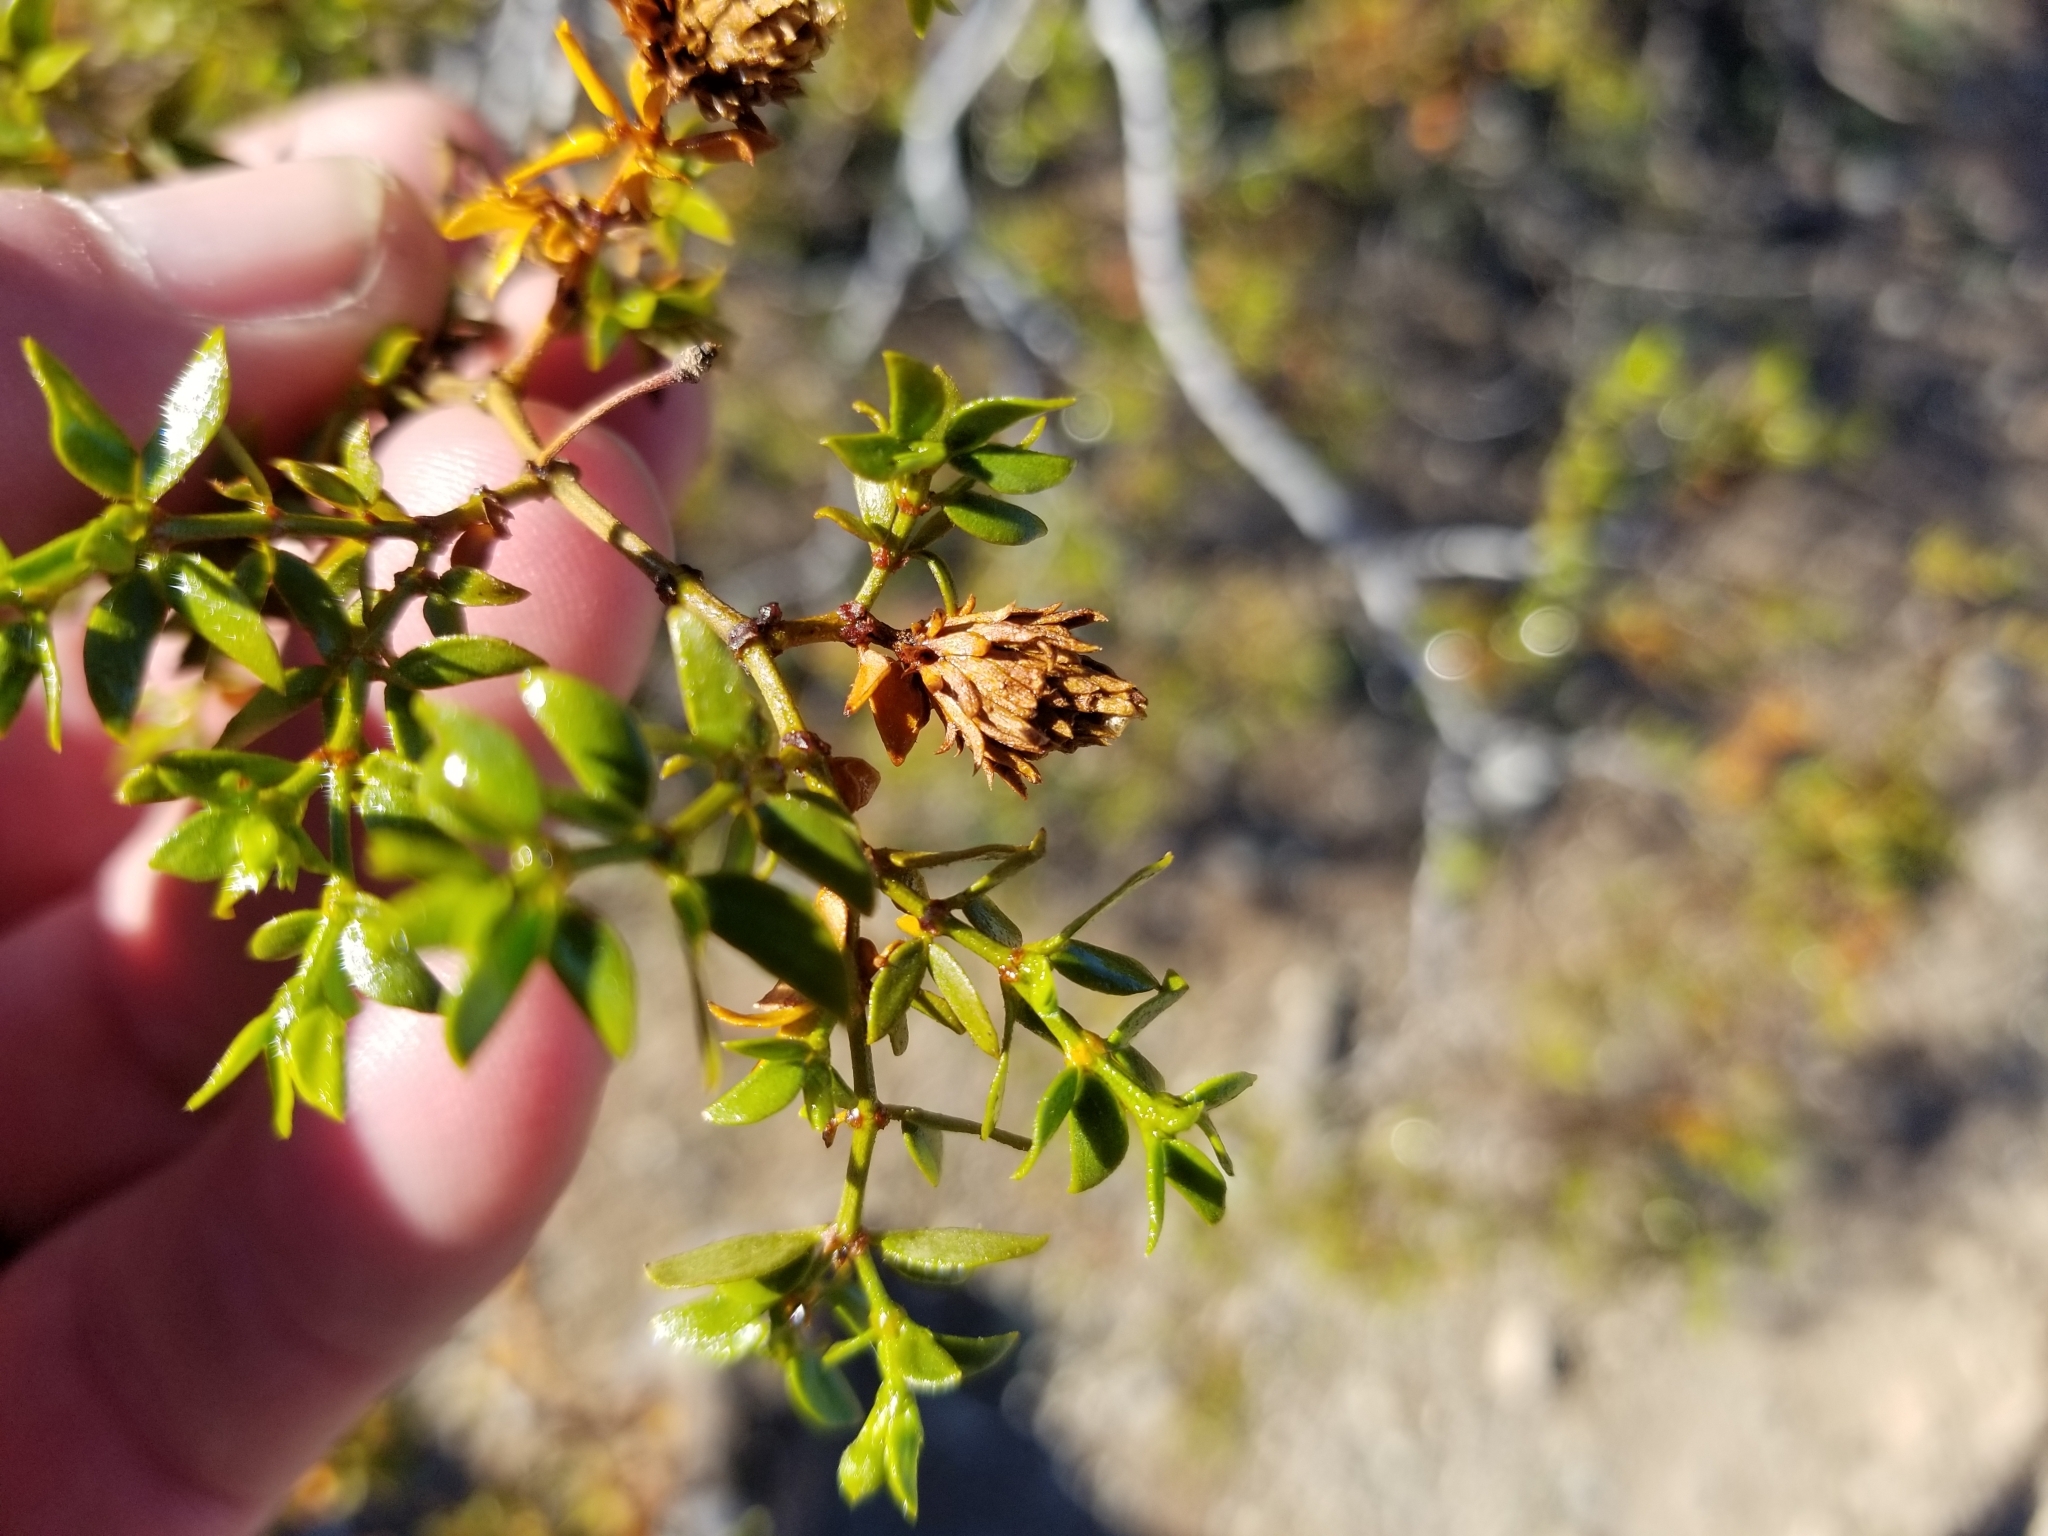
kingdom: Plantae
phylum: Tracheophyta
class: Magnoliopsida
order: Zygophyllales
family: Zygophyllaceae
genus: Larrea
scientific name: Larrea tridentata
